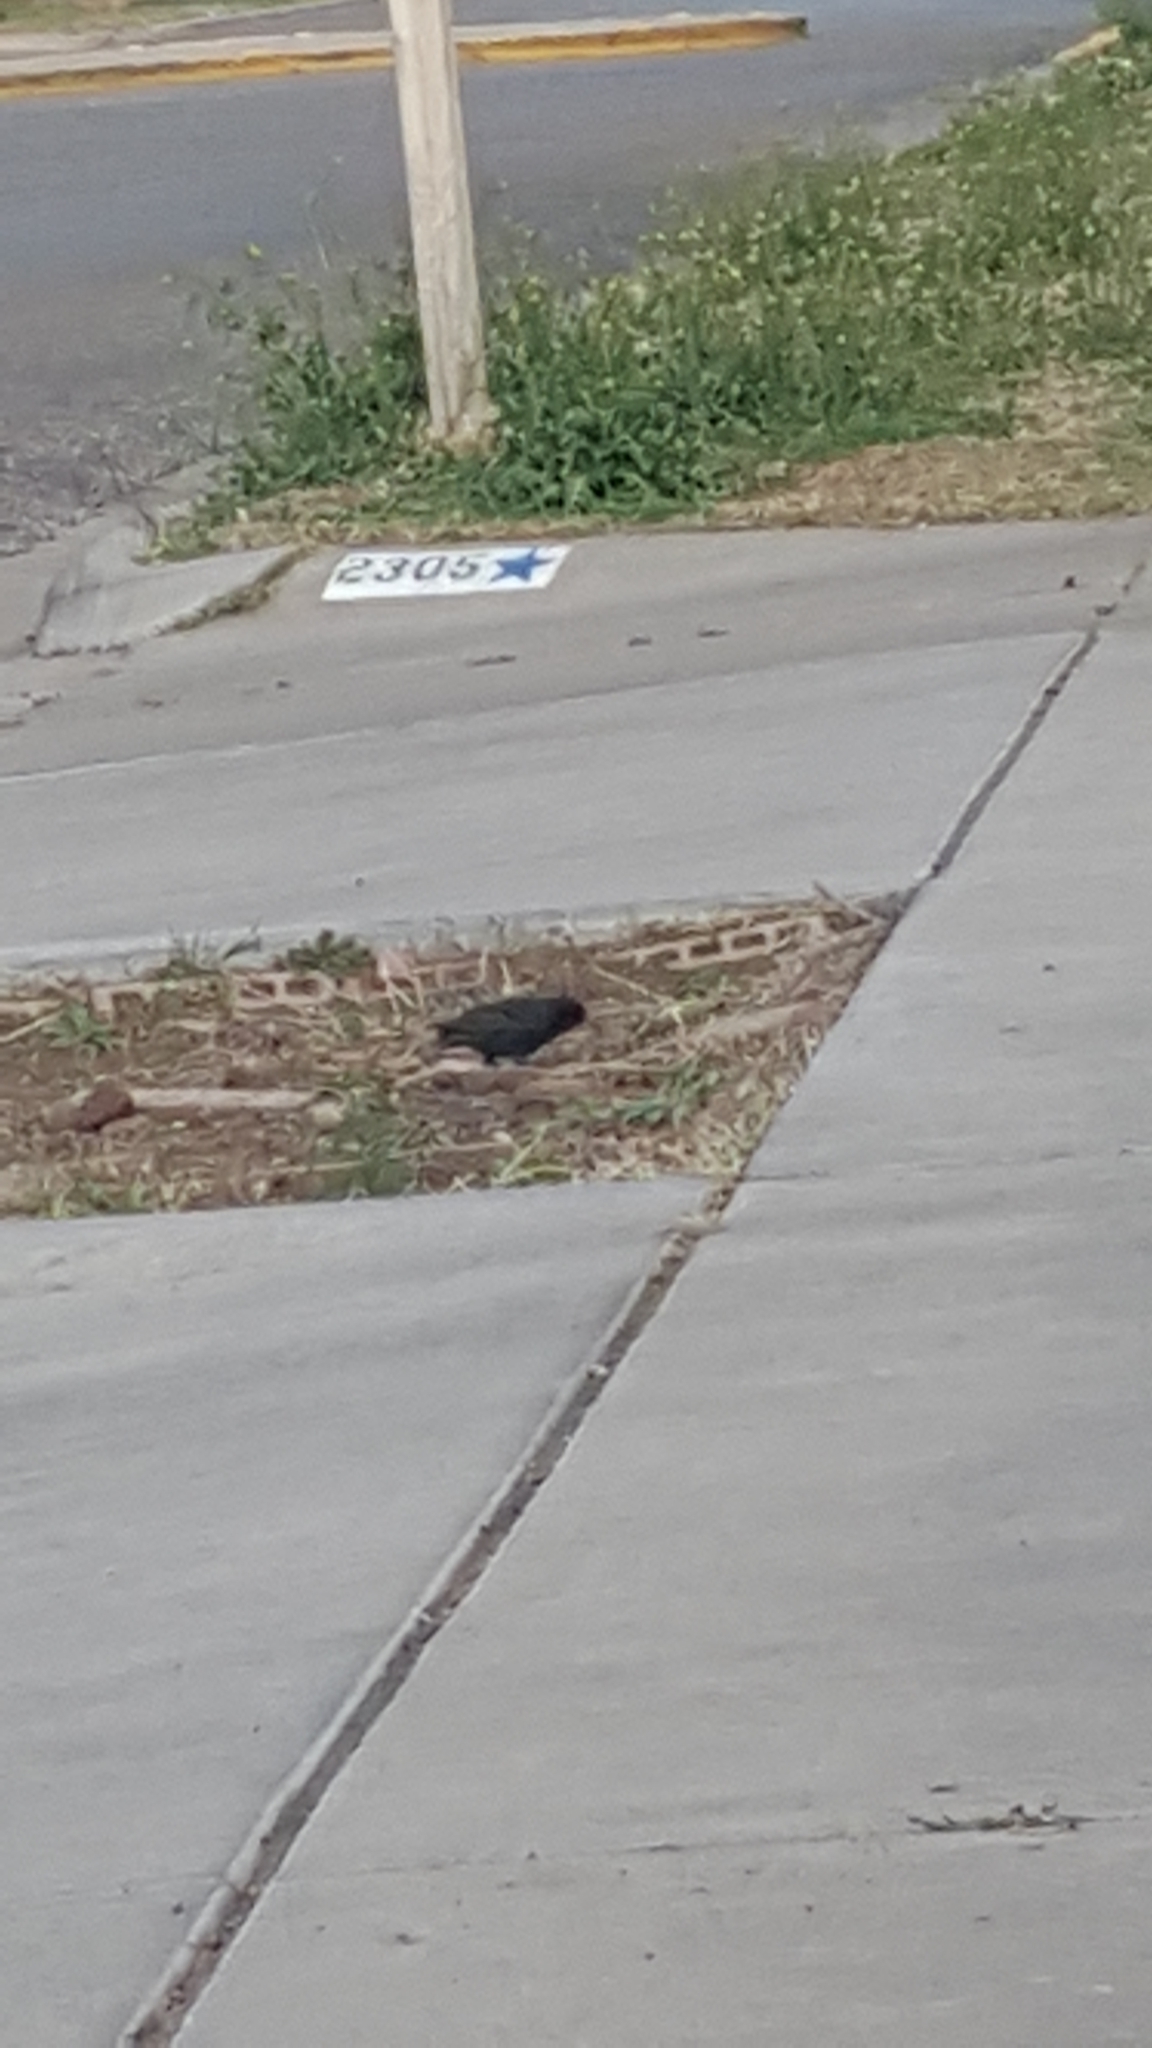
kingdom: Animalia
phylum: Chordata
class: Aves
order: Passeriformes
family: Sturnidae
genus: Sturnus
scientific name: Sturnus vulgaris
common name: Common starling
